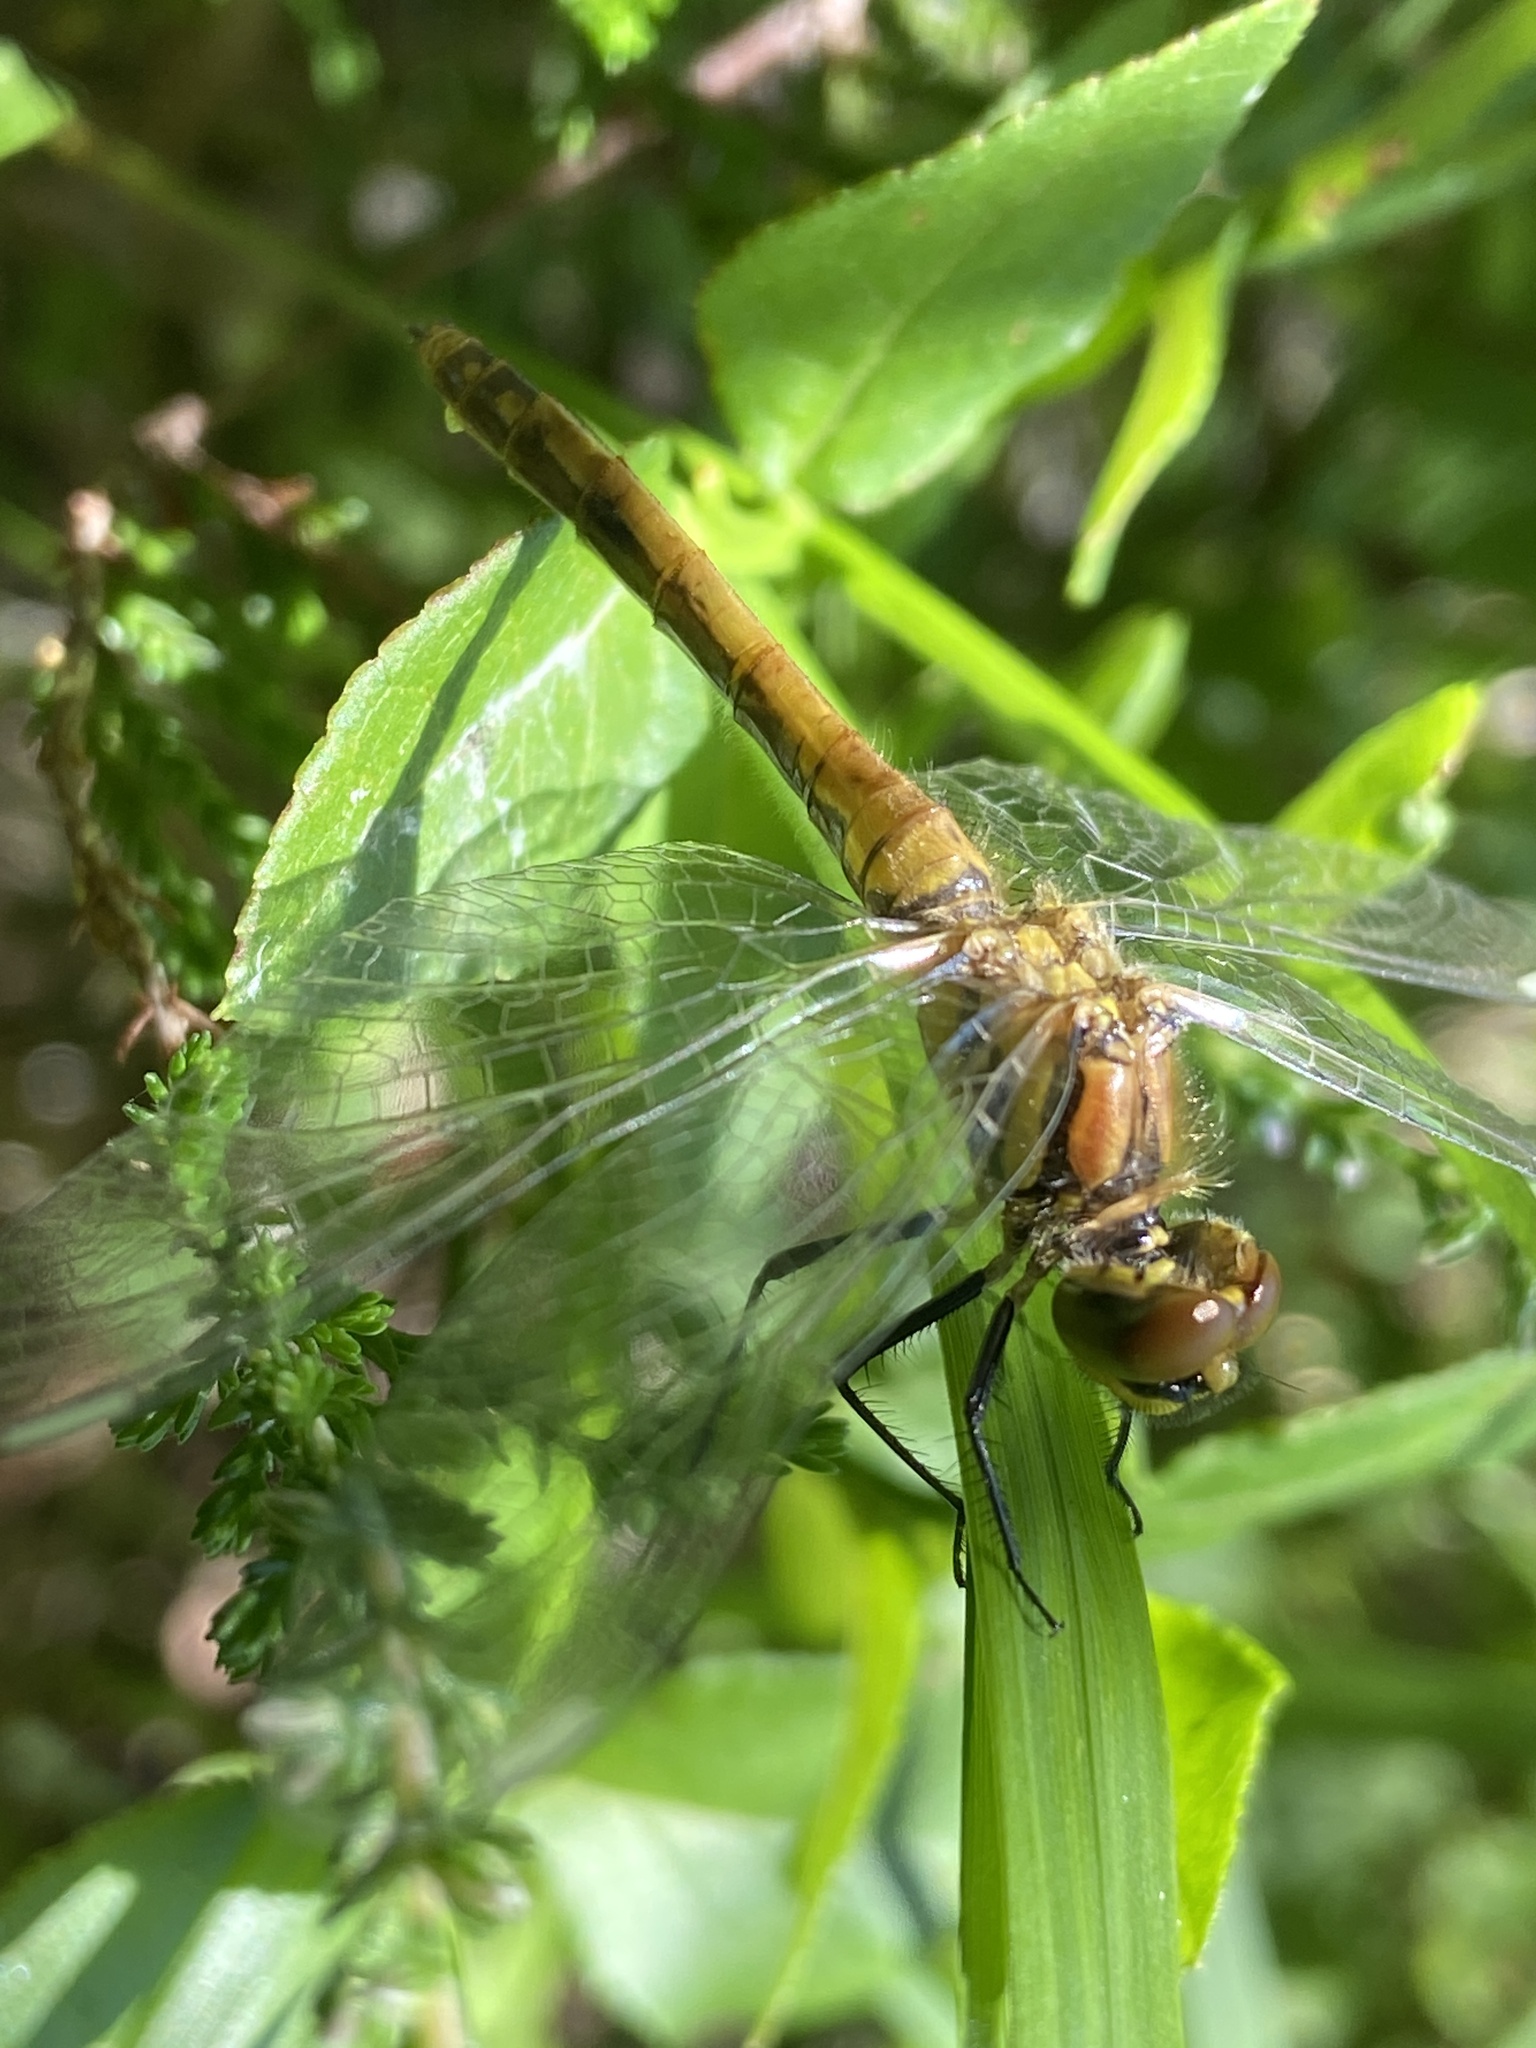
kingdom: Animalia
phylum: Arthropoda
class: Insecta
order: Odonata
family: Libellulidae
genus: Sympetrum
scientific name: Sympetrum sanguineum
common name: Ruddy darter
